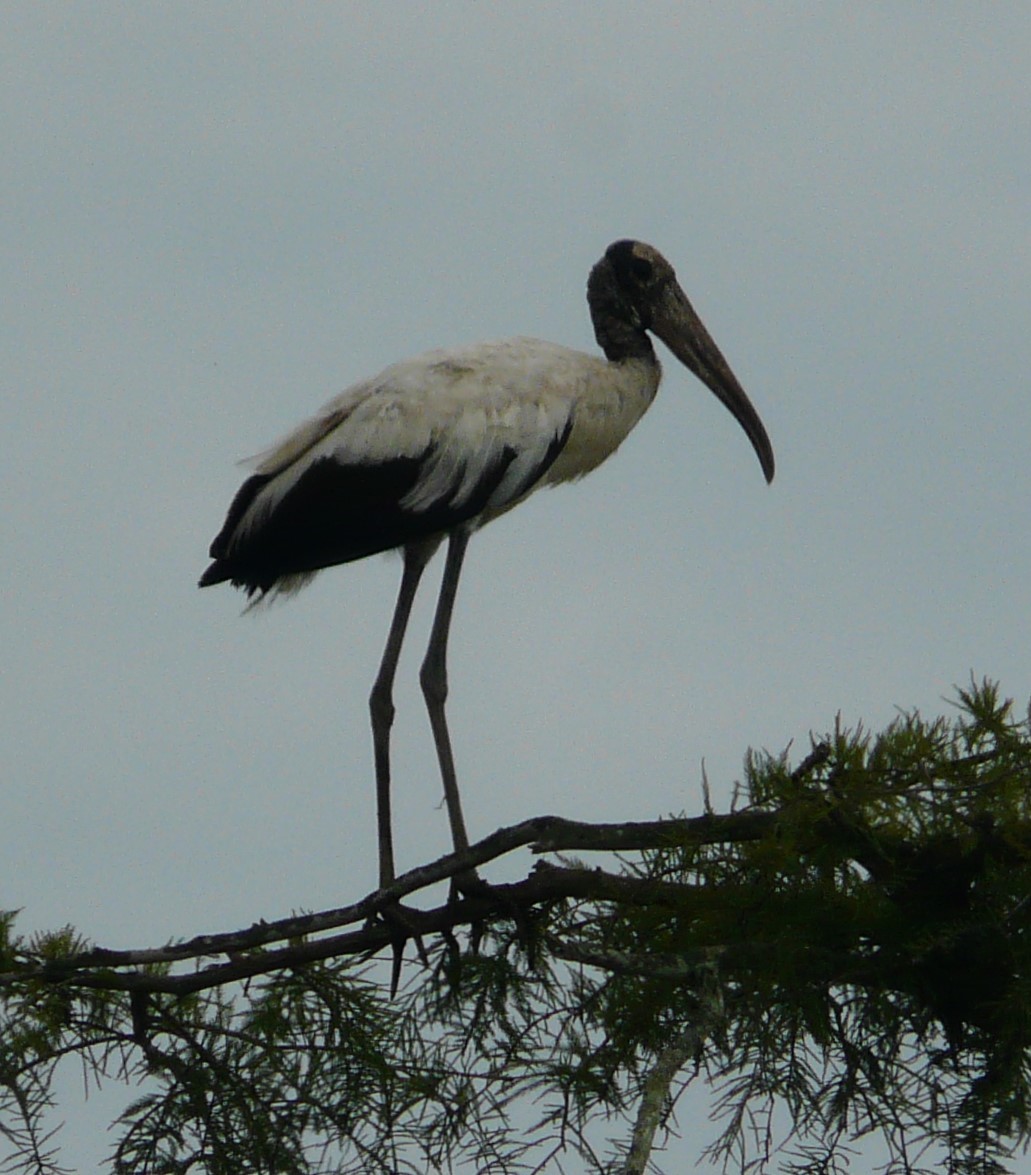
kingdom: Animalia
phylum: Chordata
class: Aves
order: Ciconiiformes
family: Ciconiidae
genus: Mycteria
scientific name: Mycteria americana
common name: Wood stork
